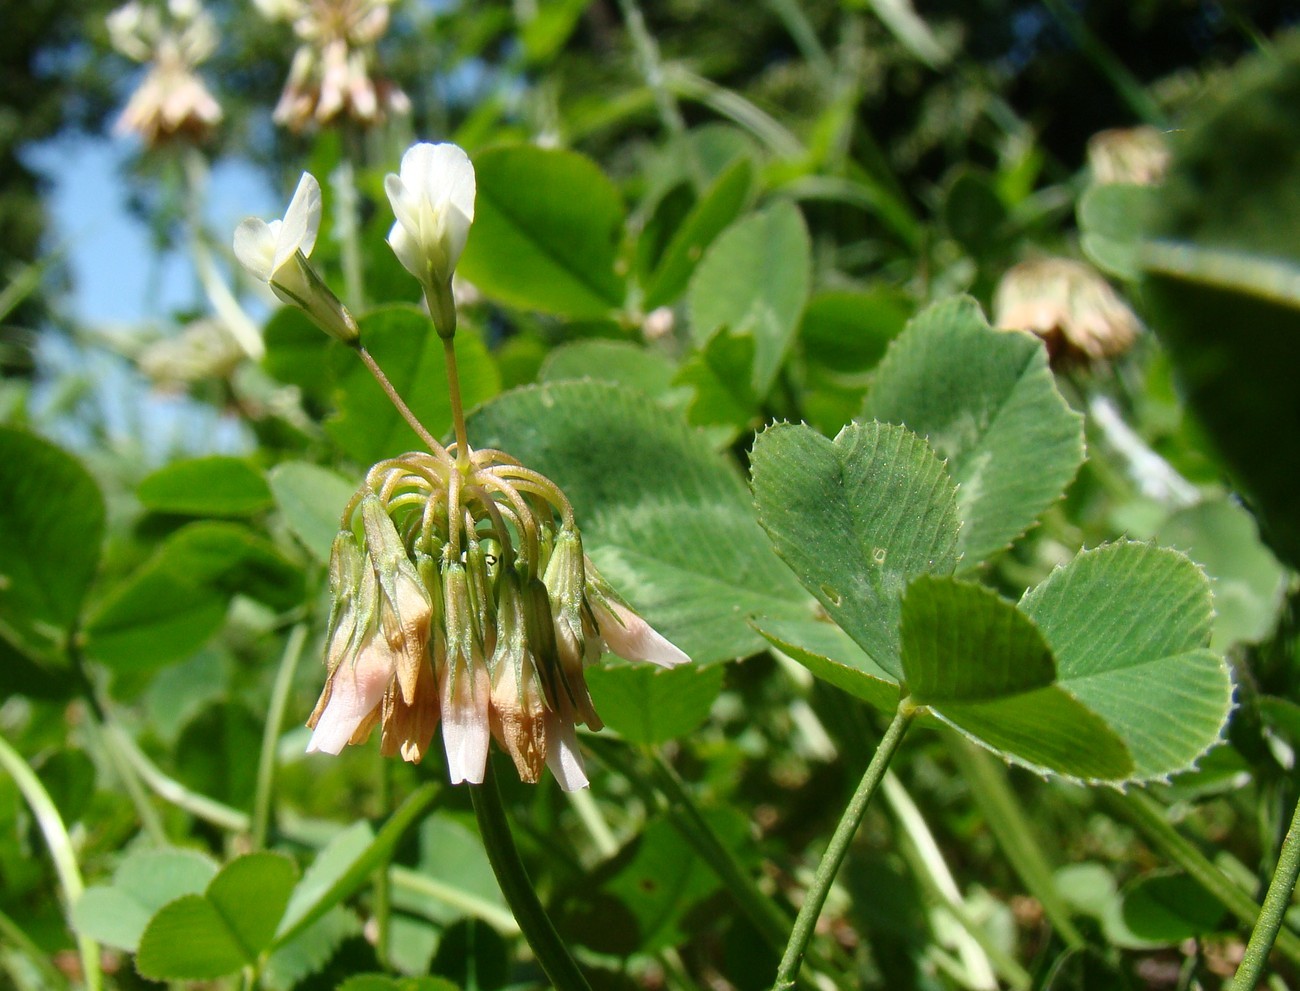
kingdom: Plantae
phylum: Tracheophyta
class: Magnoliopsida
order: Fabales
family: Fabaceae
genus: Trifolium
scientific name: Trifolium repens
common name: White clover
